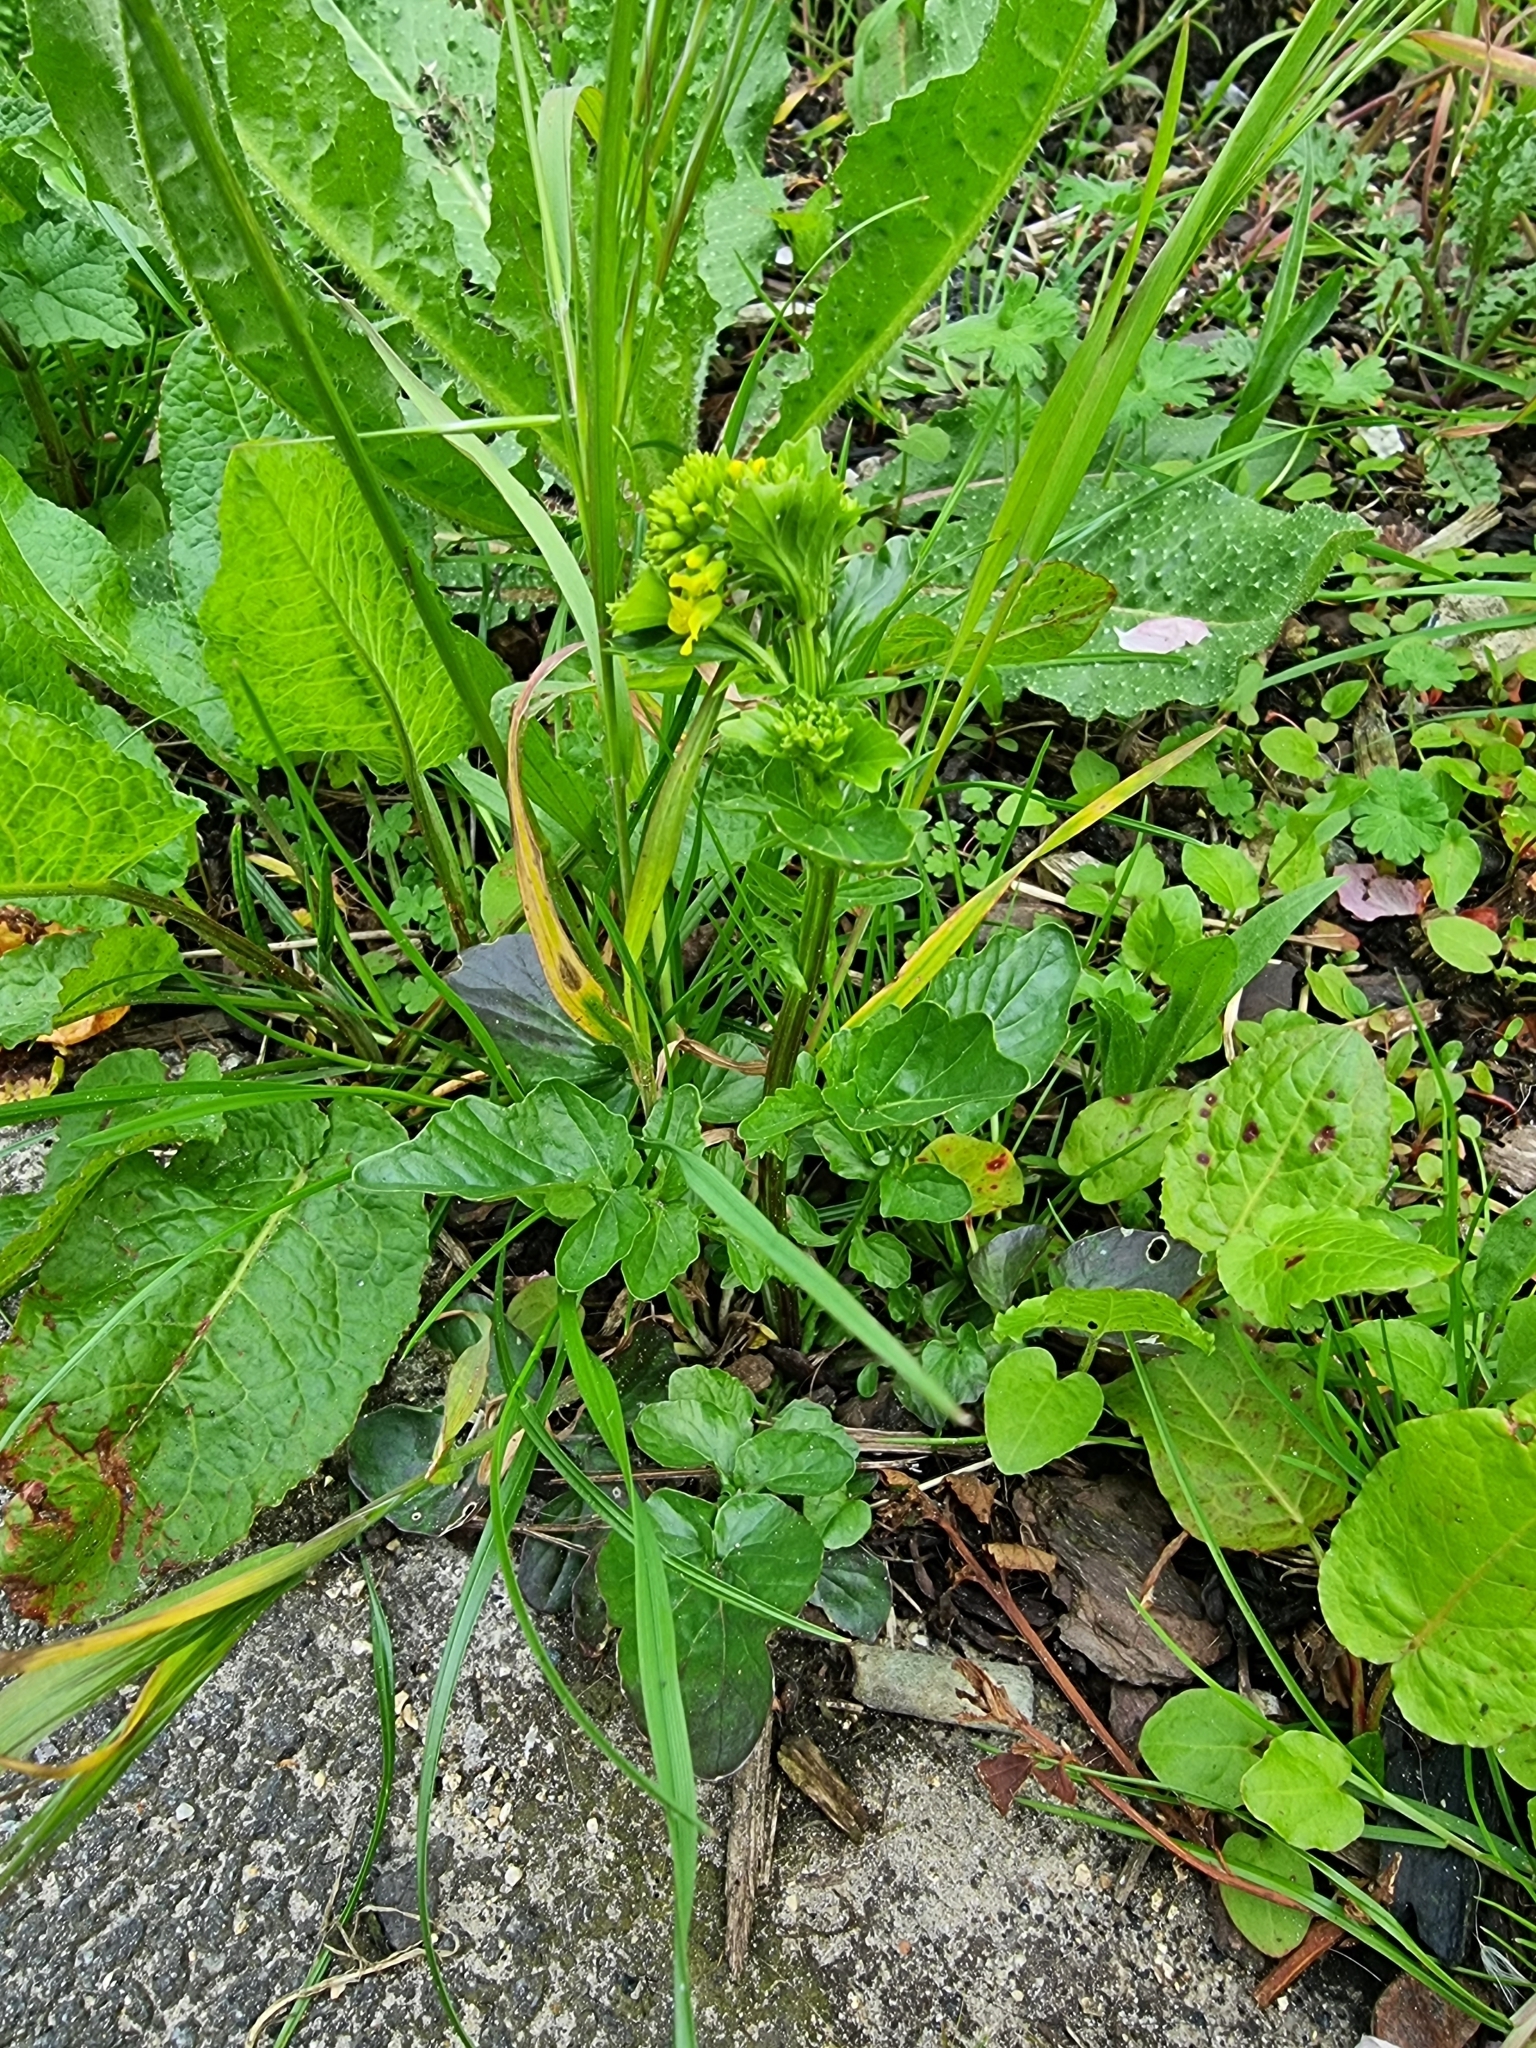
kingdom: Plantae
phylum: Tracheophyta
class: Magnoliopsida
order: Brassicales
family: Brassicaceae
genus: Barbarea
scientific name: Barbarea vulgaris
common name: Cressy-greens
